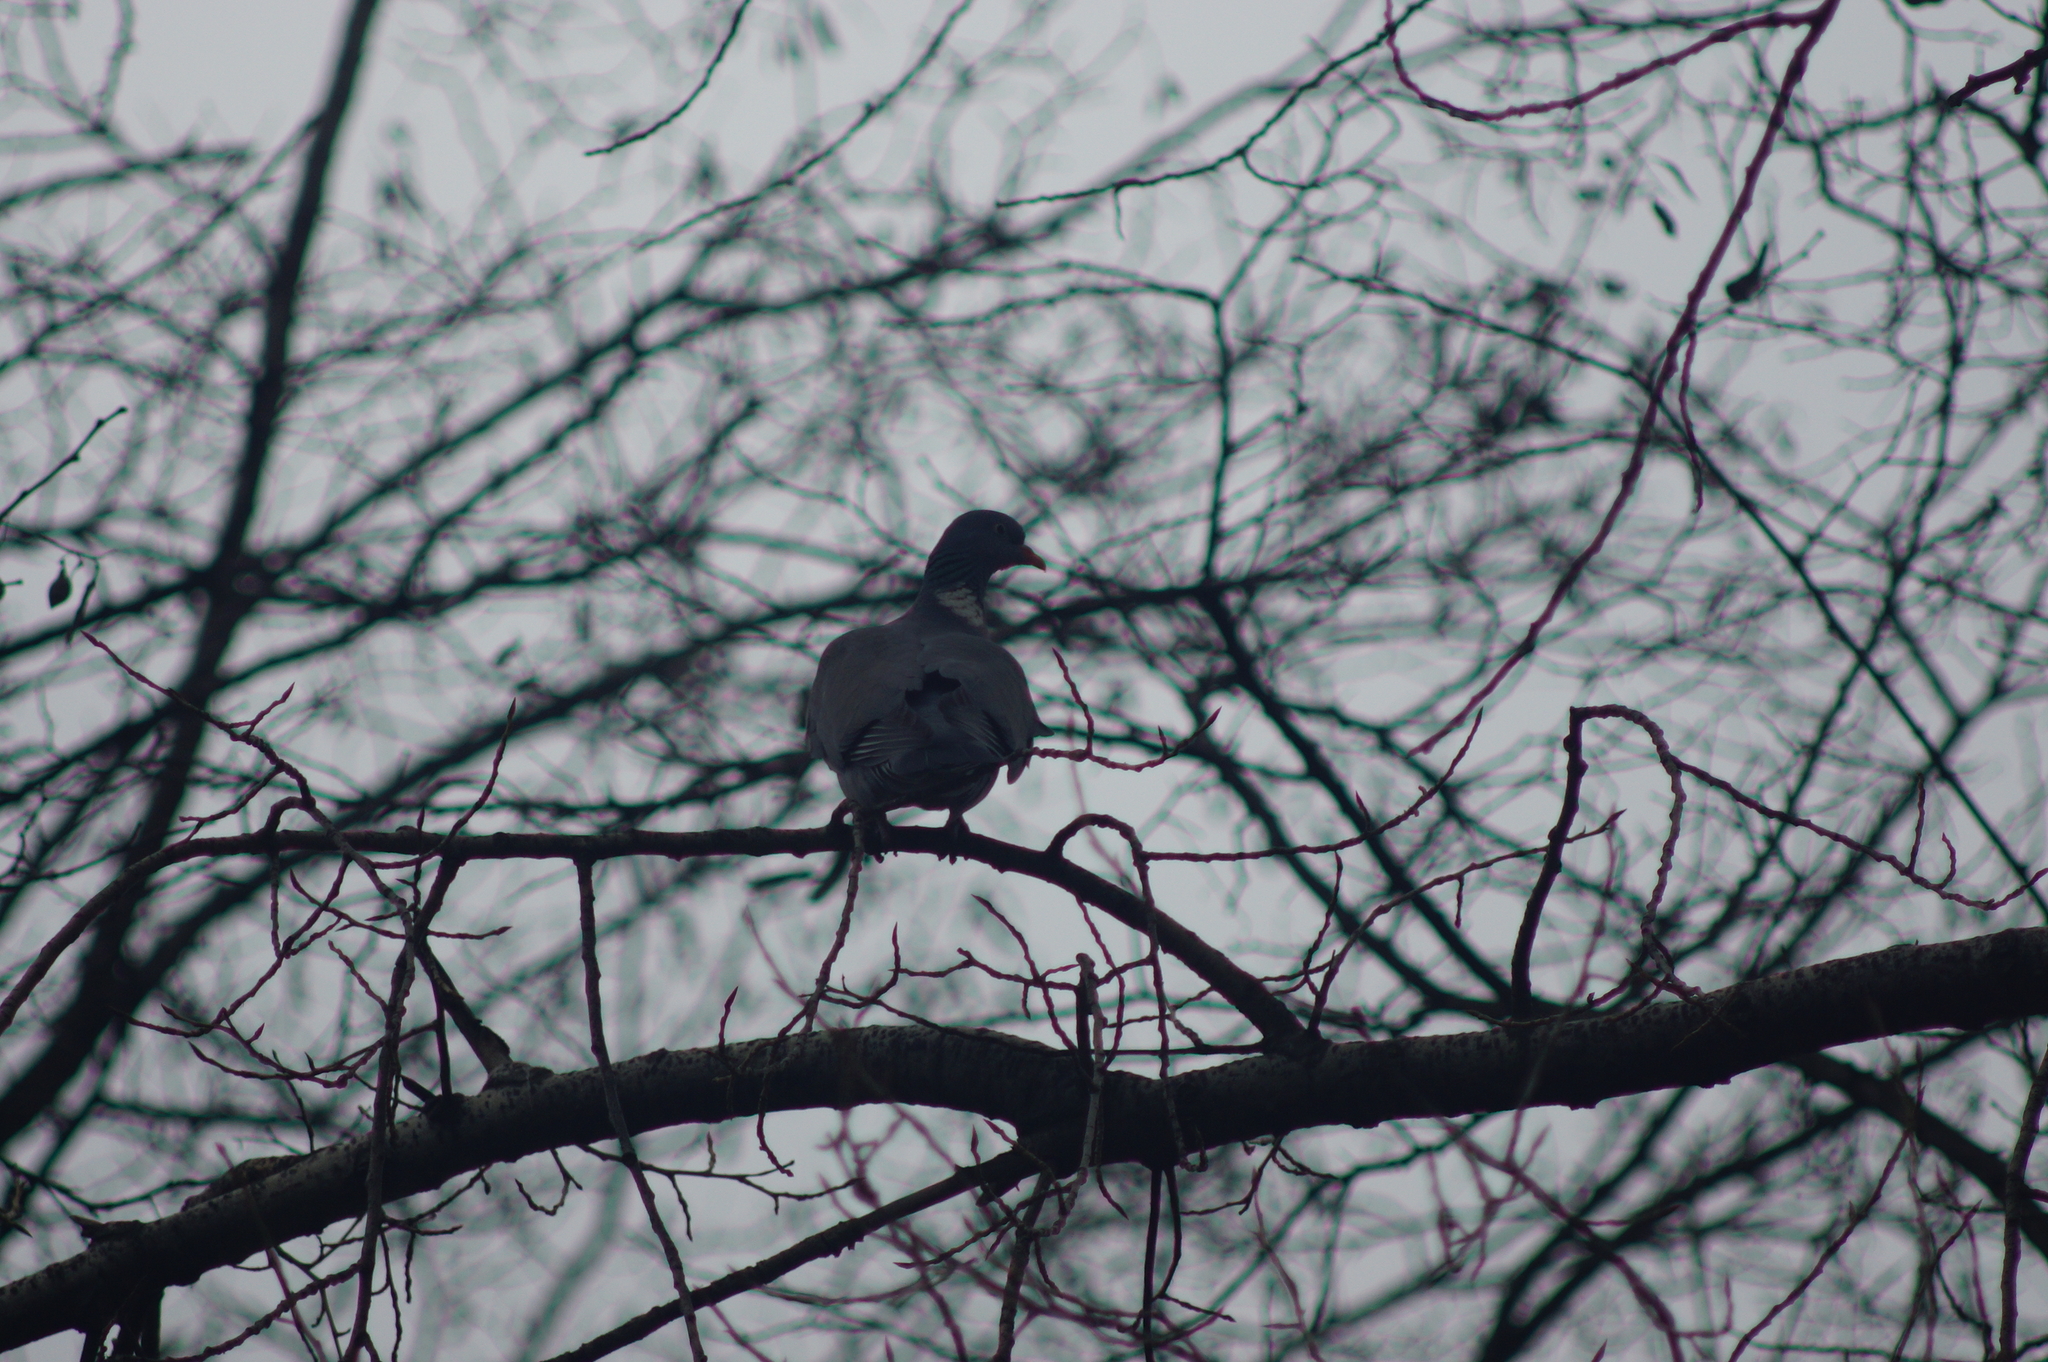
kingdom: Animalia
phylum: Chordata
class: Aves
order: Columbiformes
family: Columbidae
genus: Columba
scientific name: Columba palumbus
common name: Common wood pigeon
